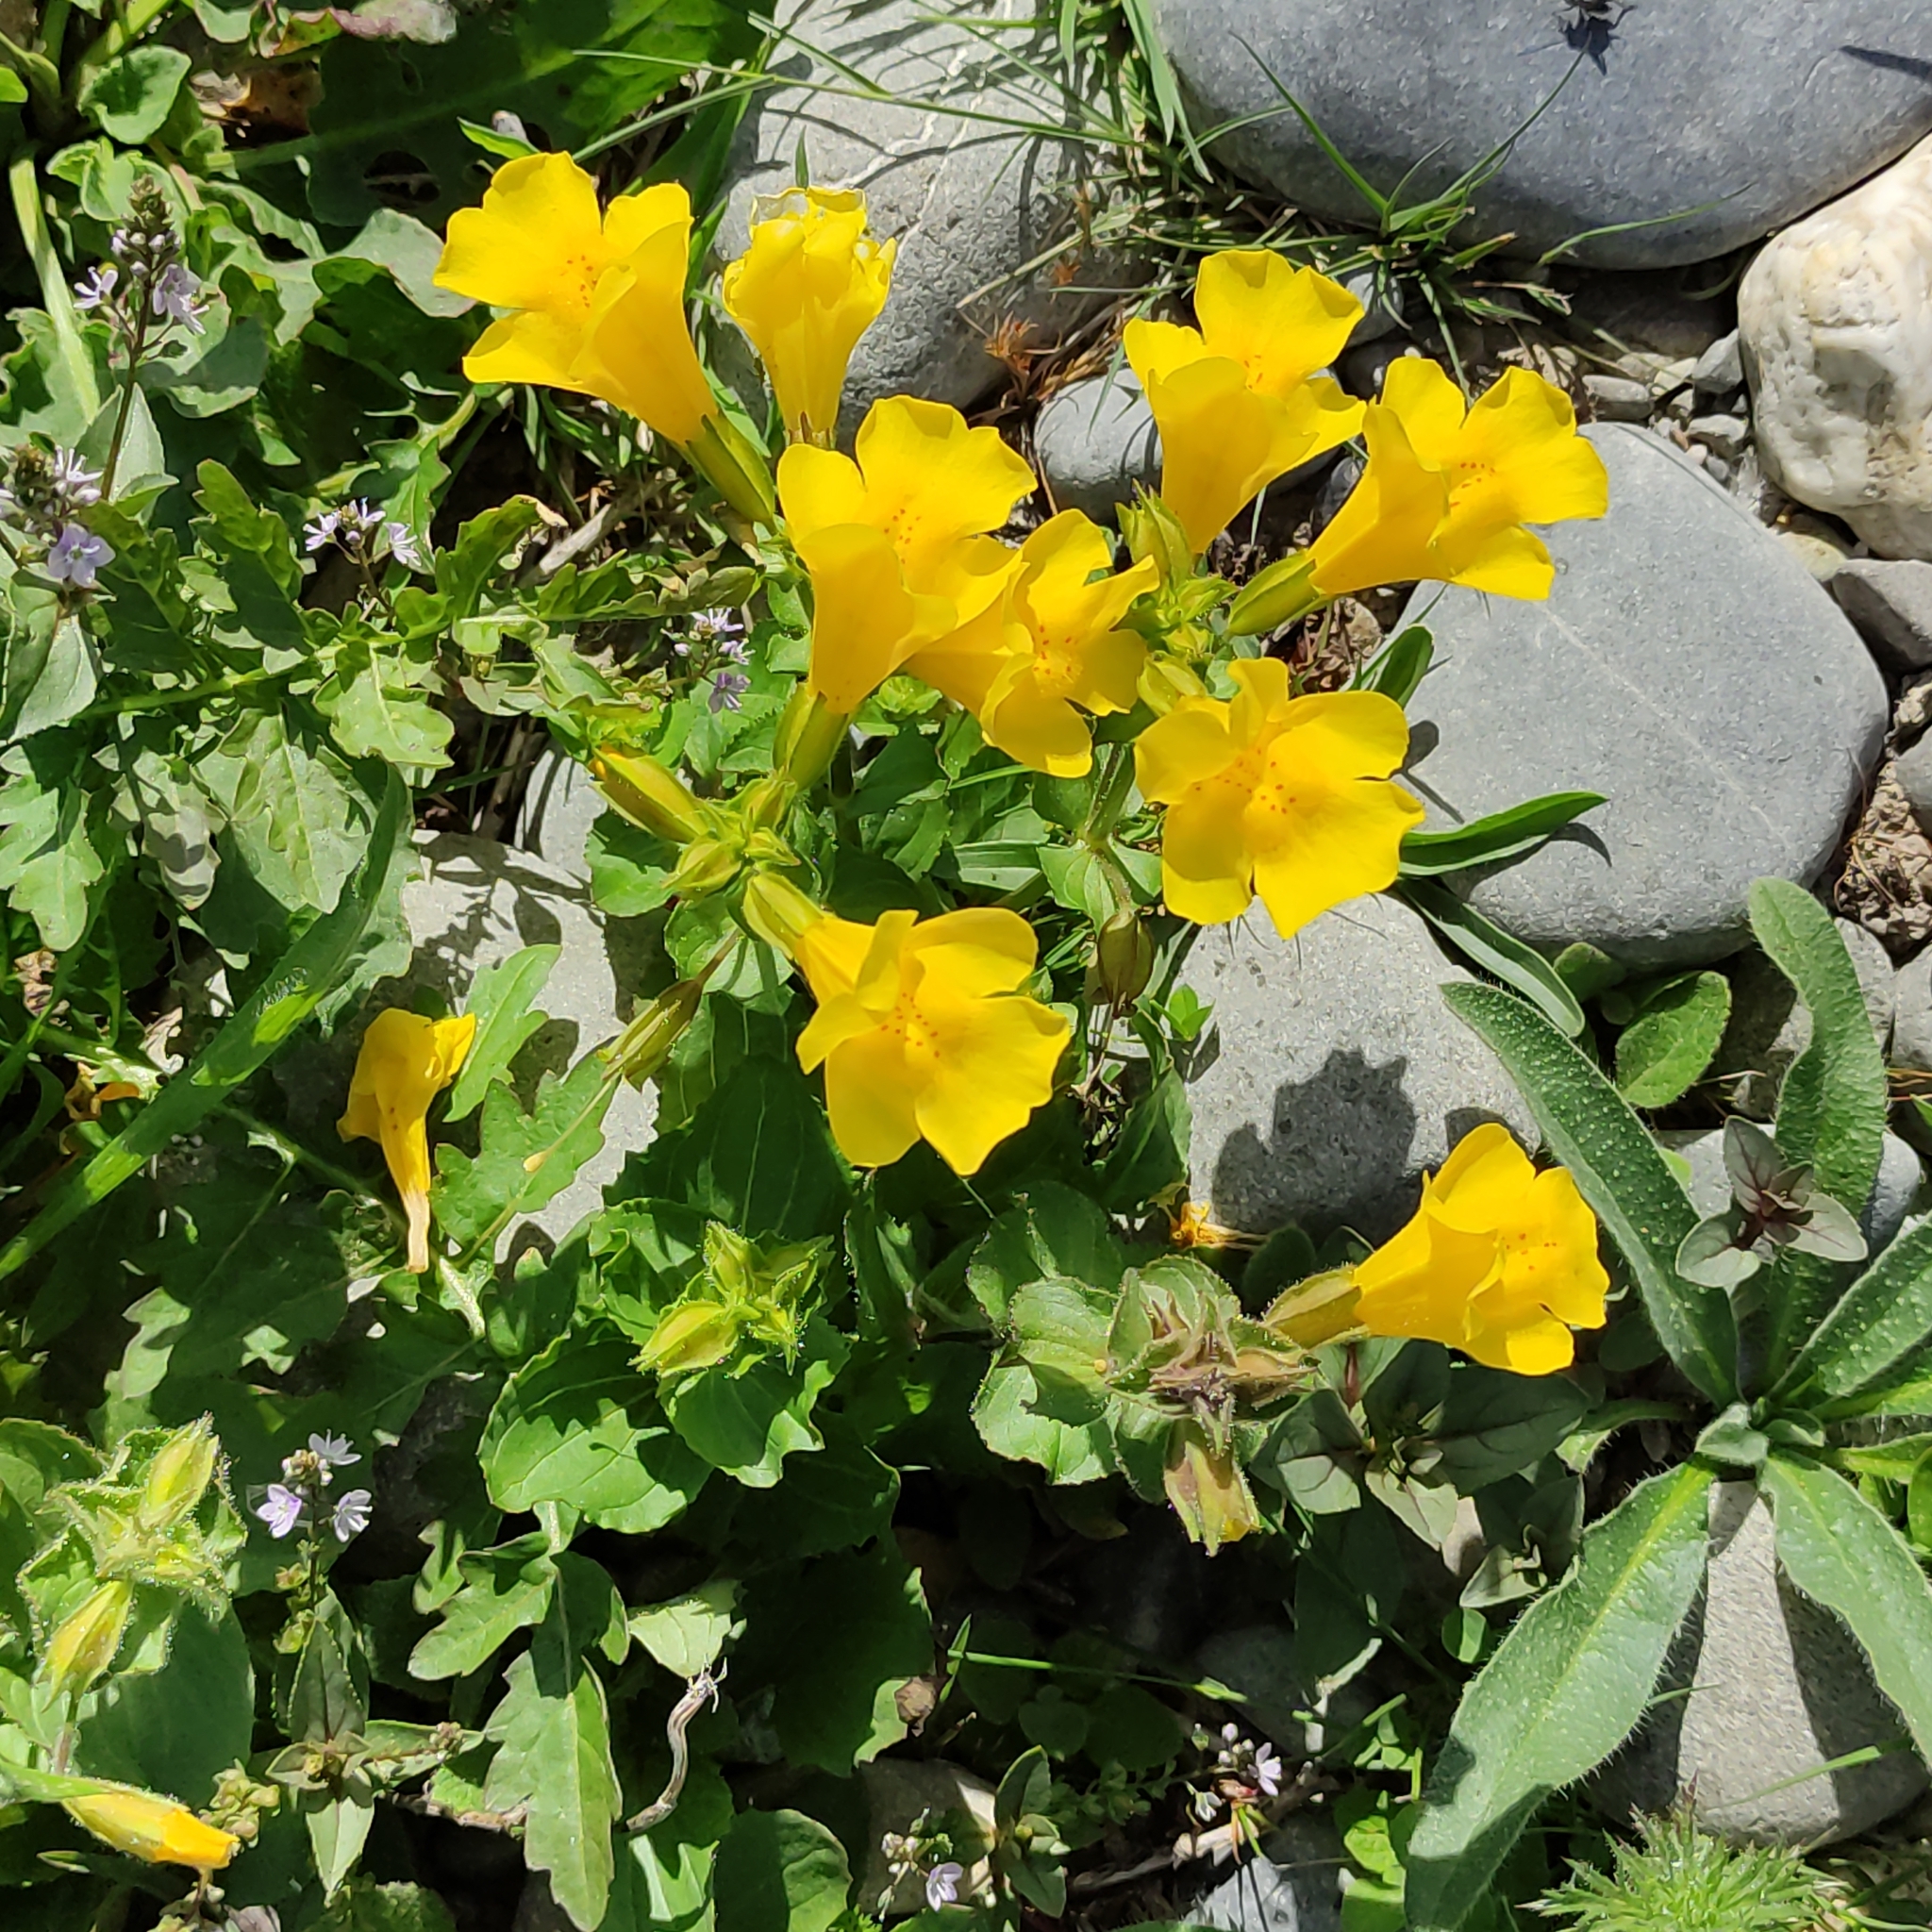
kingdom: Plantae
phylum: Tracheophyta
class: Magnoliopsida
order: Lamiales
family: Phrymaceae
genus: Erythranthe
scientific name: Erythranthe guttata
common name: Monkeyflower
